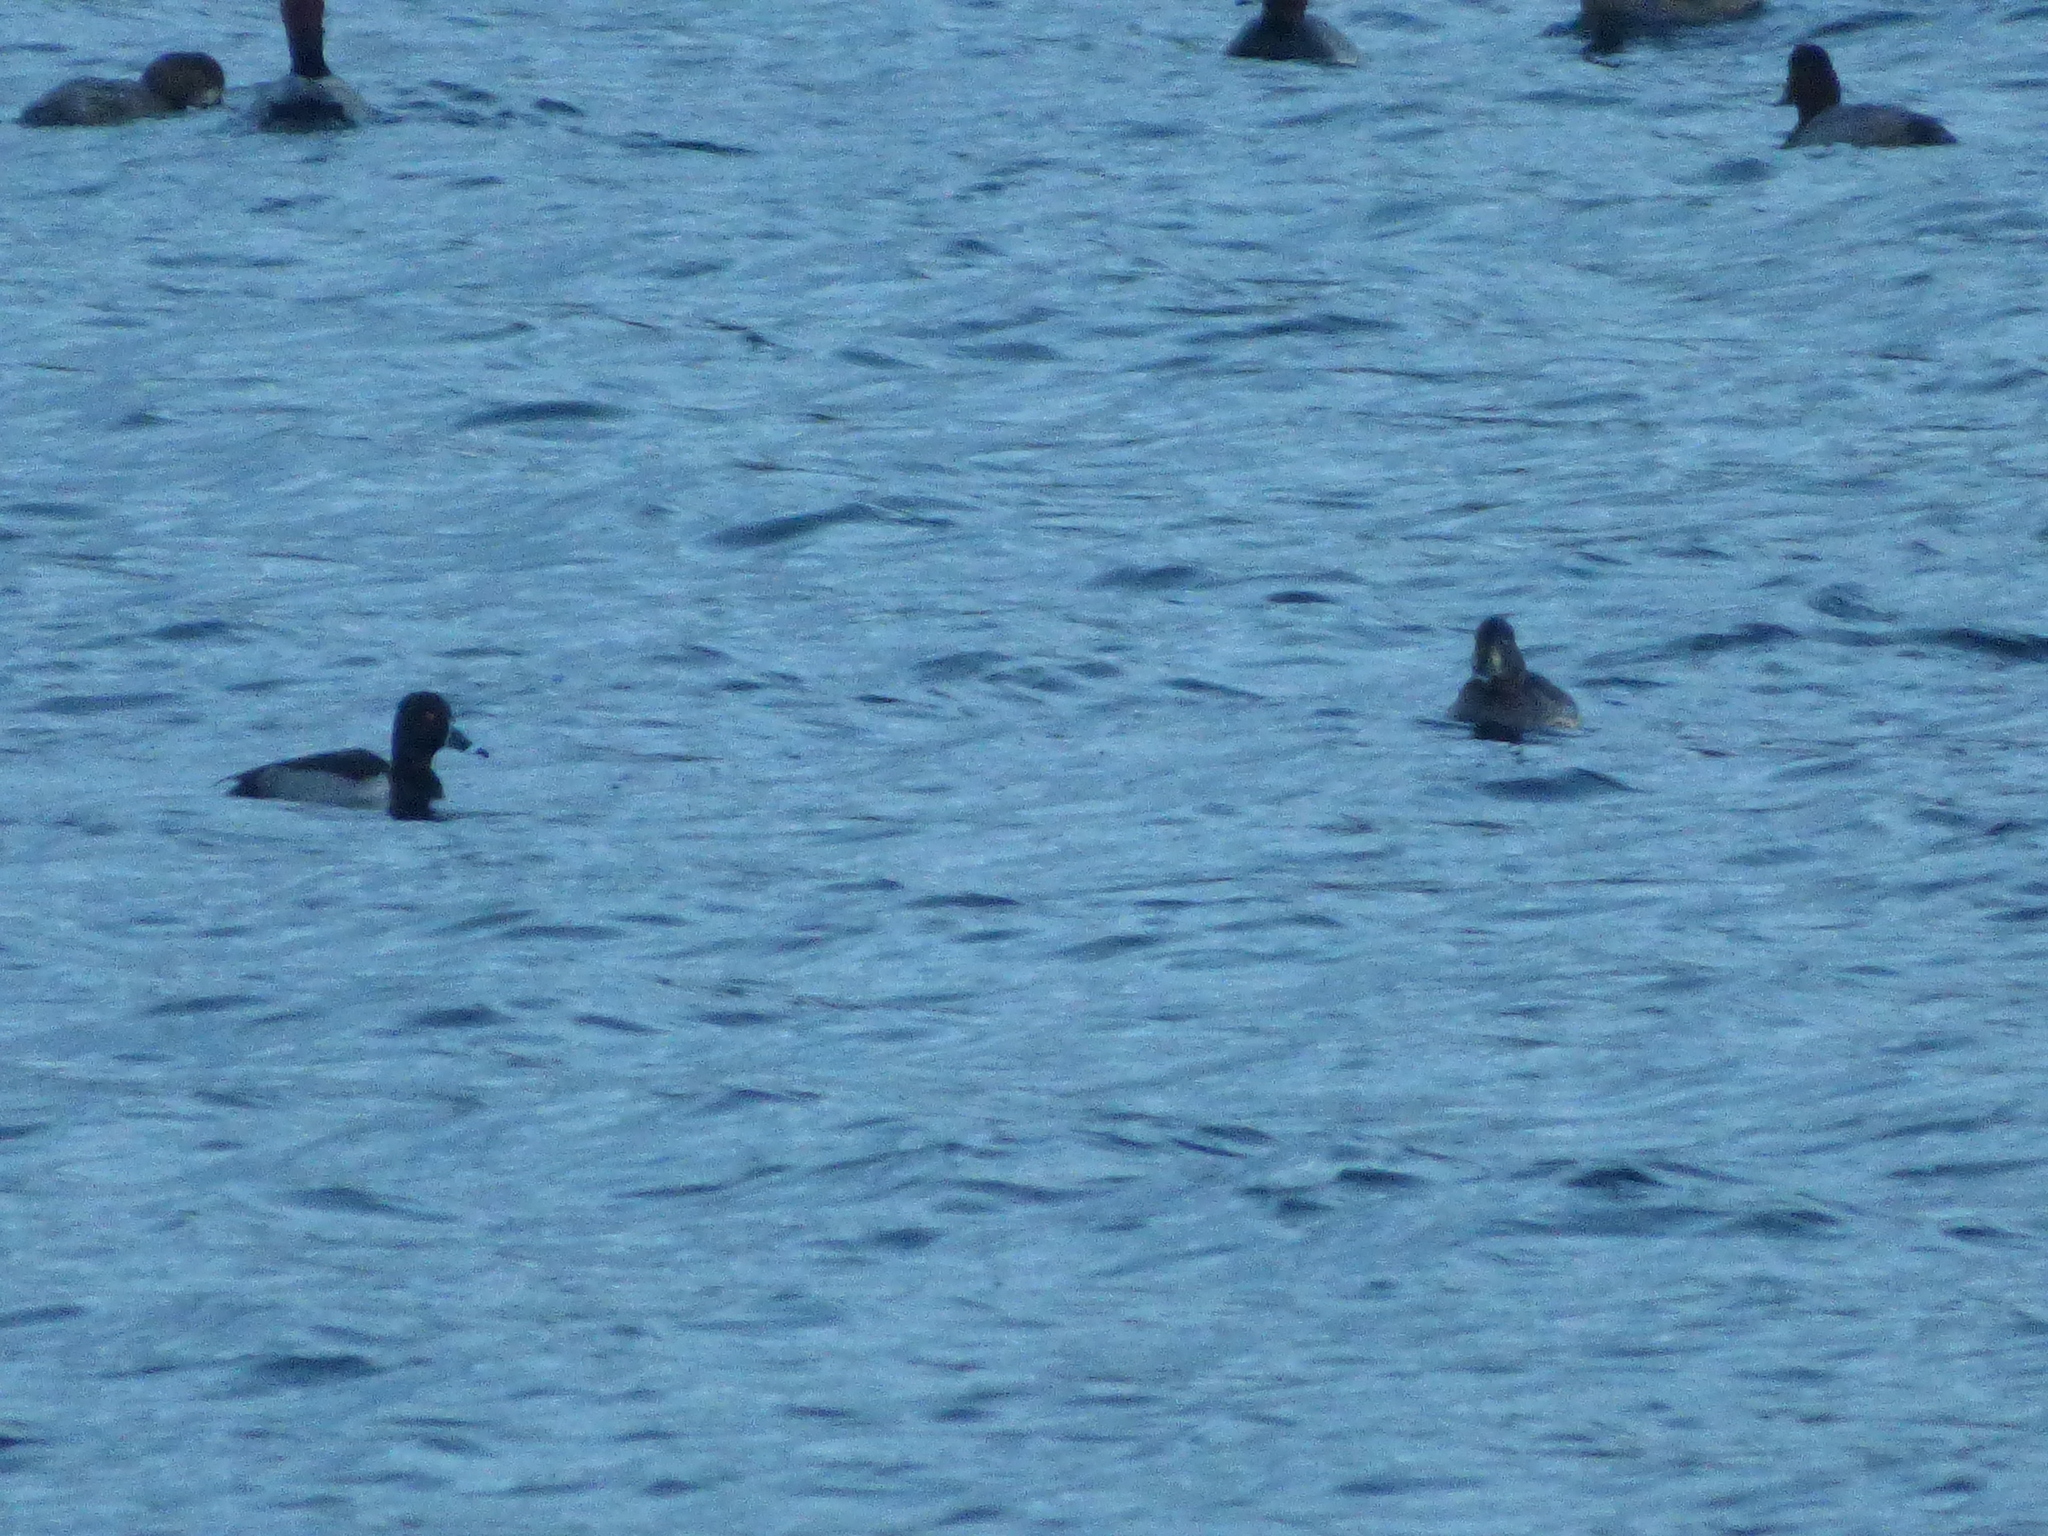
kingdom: Animalia
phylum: Chordata
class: Aves
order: Anseriformes
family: Anatidae
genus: Aythya
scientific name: Aythya collaris
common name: Ring-necked duck
